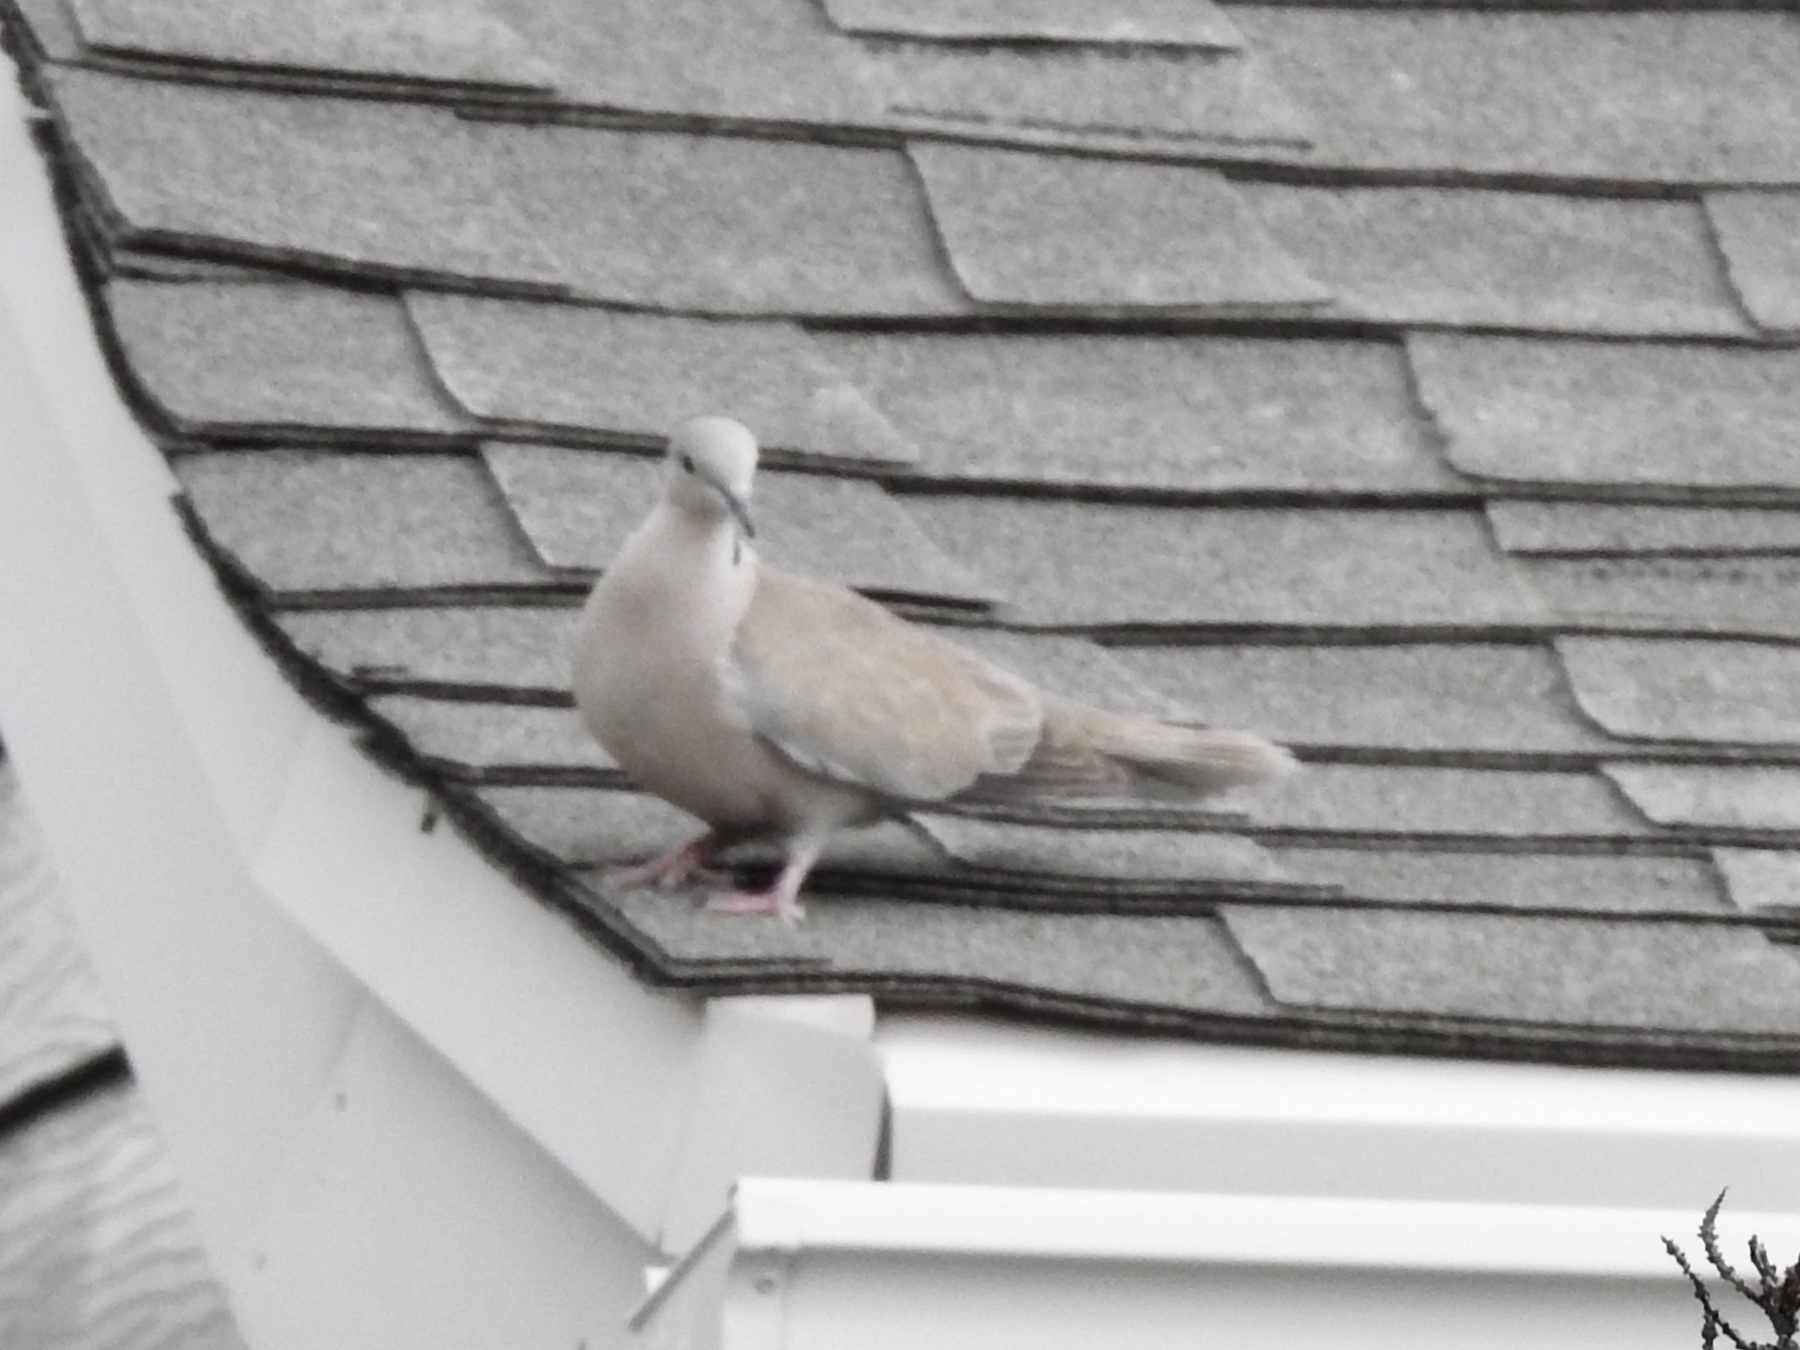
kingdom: Animalia
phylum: Chordata
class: Aves
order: Columbiformes
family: Columbidae
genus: Streptopelia
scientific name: Streptopelia decaocto
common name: Eurasian collared dove
